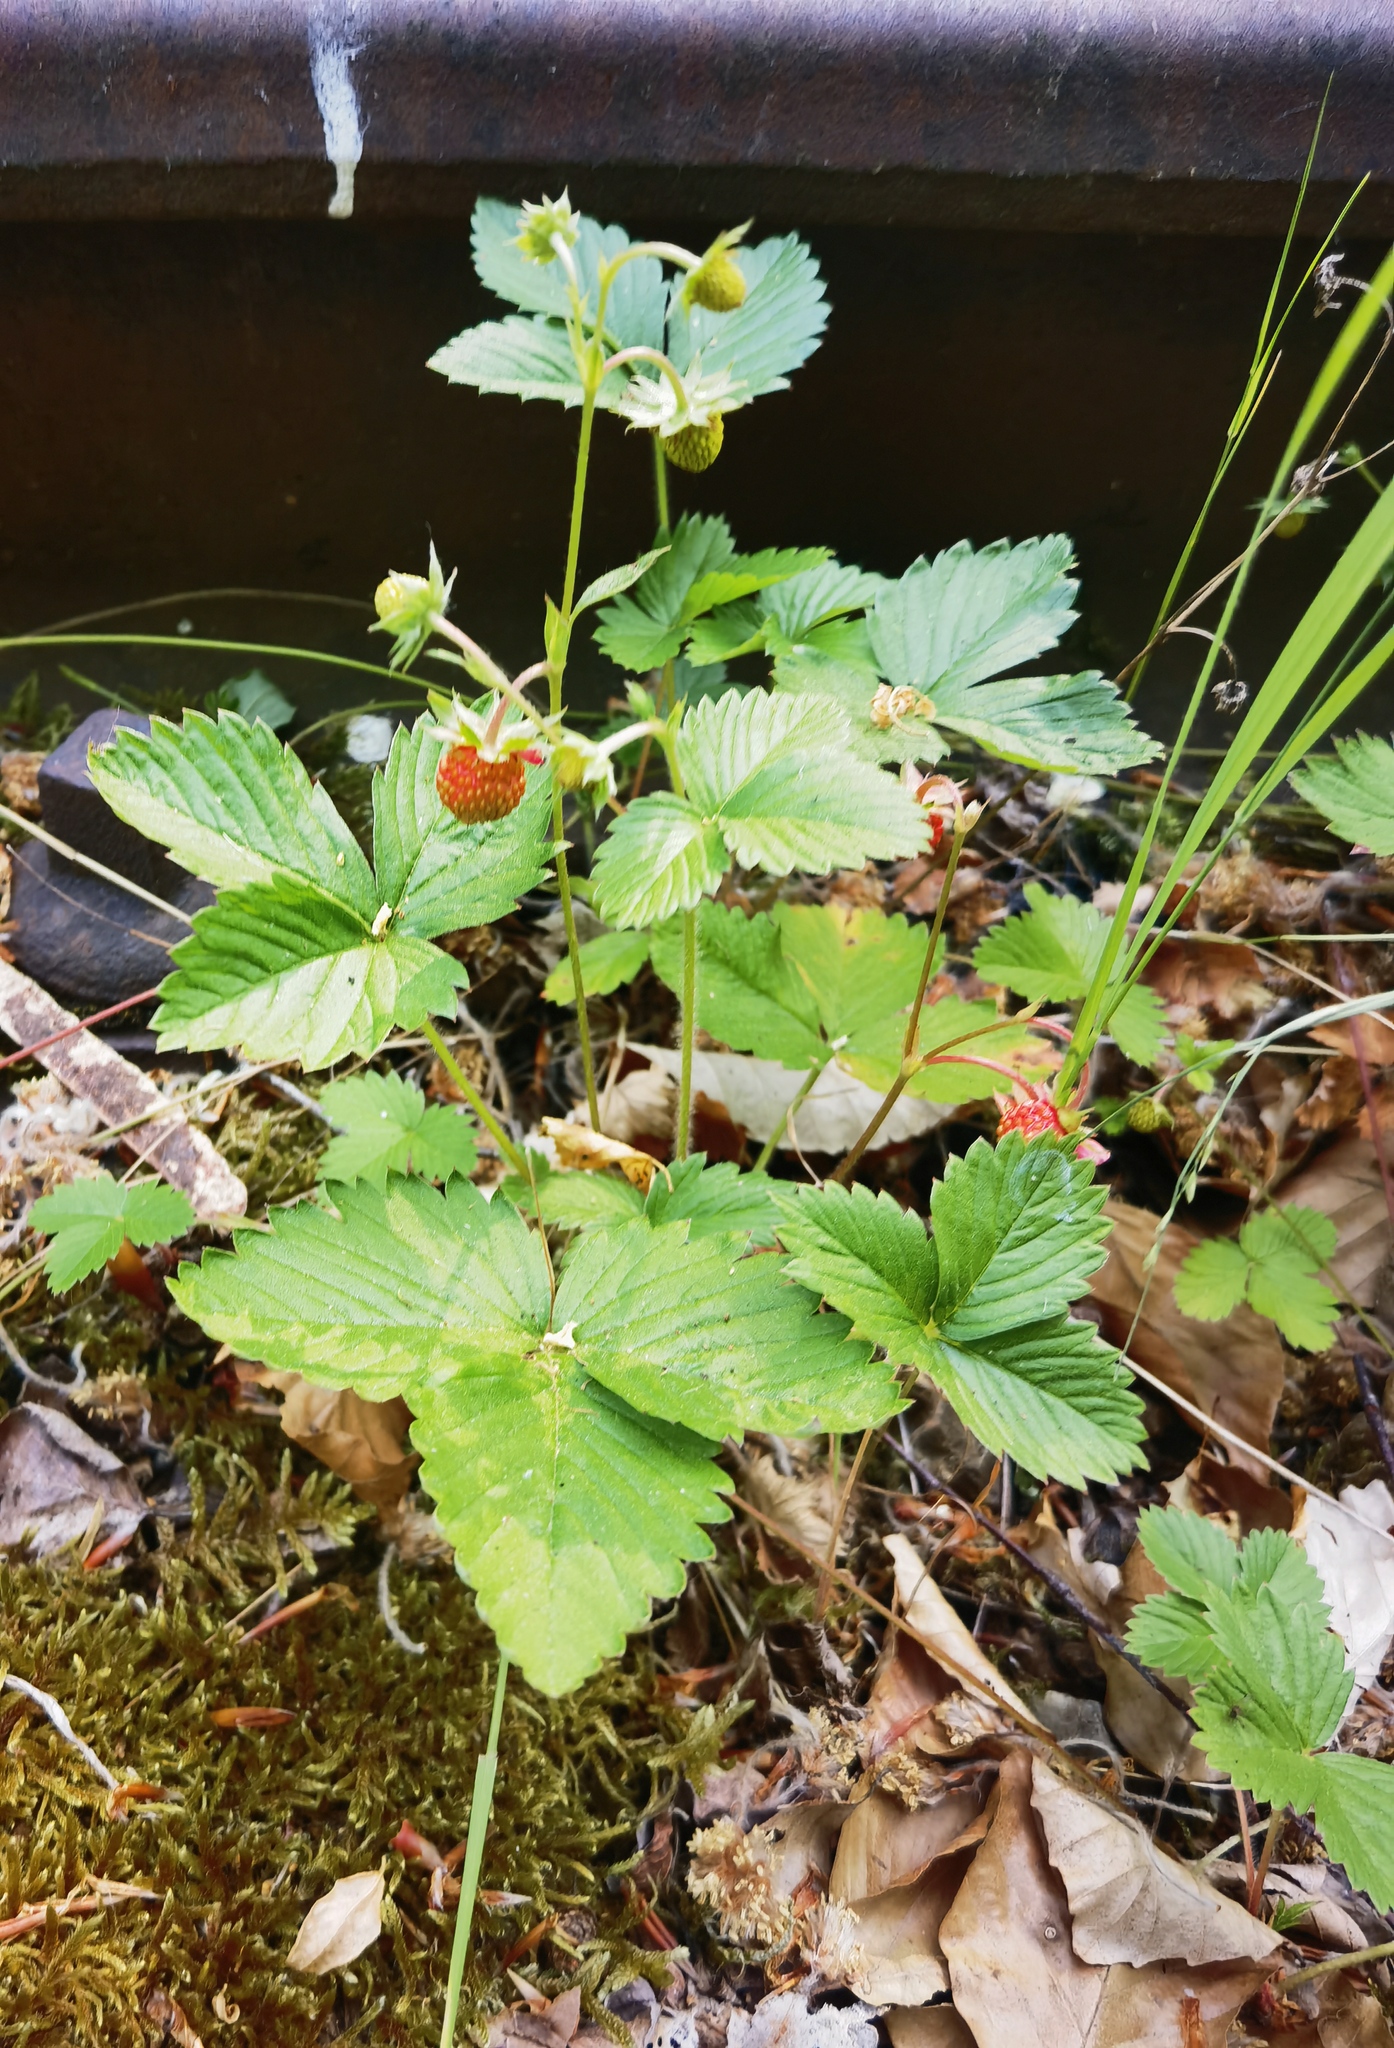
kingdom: Plantae
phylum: Tracheophyta
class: Magnoliopsida
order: Rosales
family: Rosaceae
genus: Fragaria
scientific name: Fragaria vesca
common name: Wild strawberry
